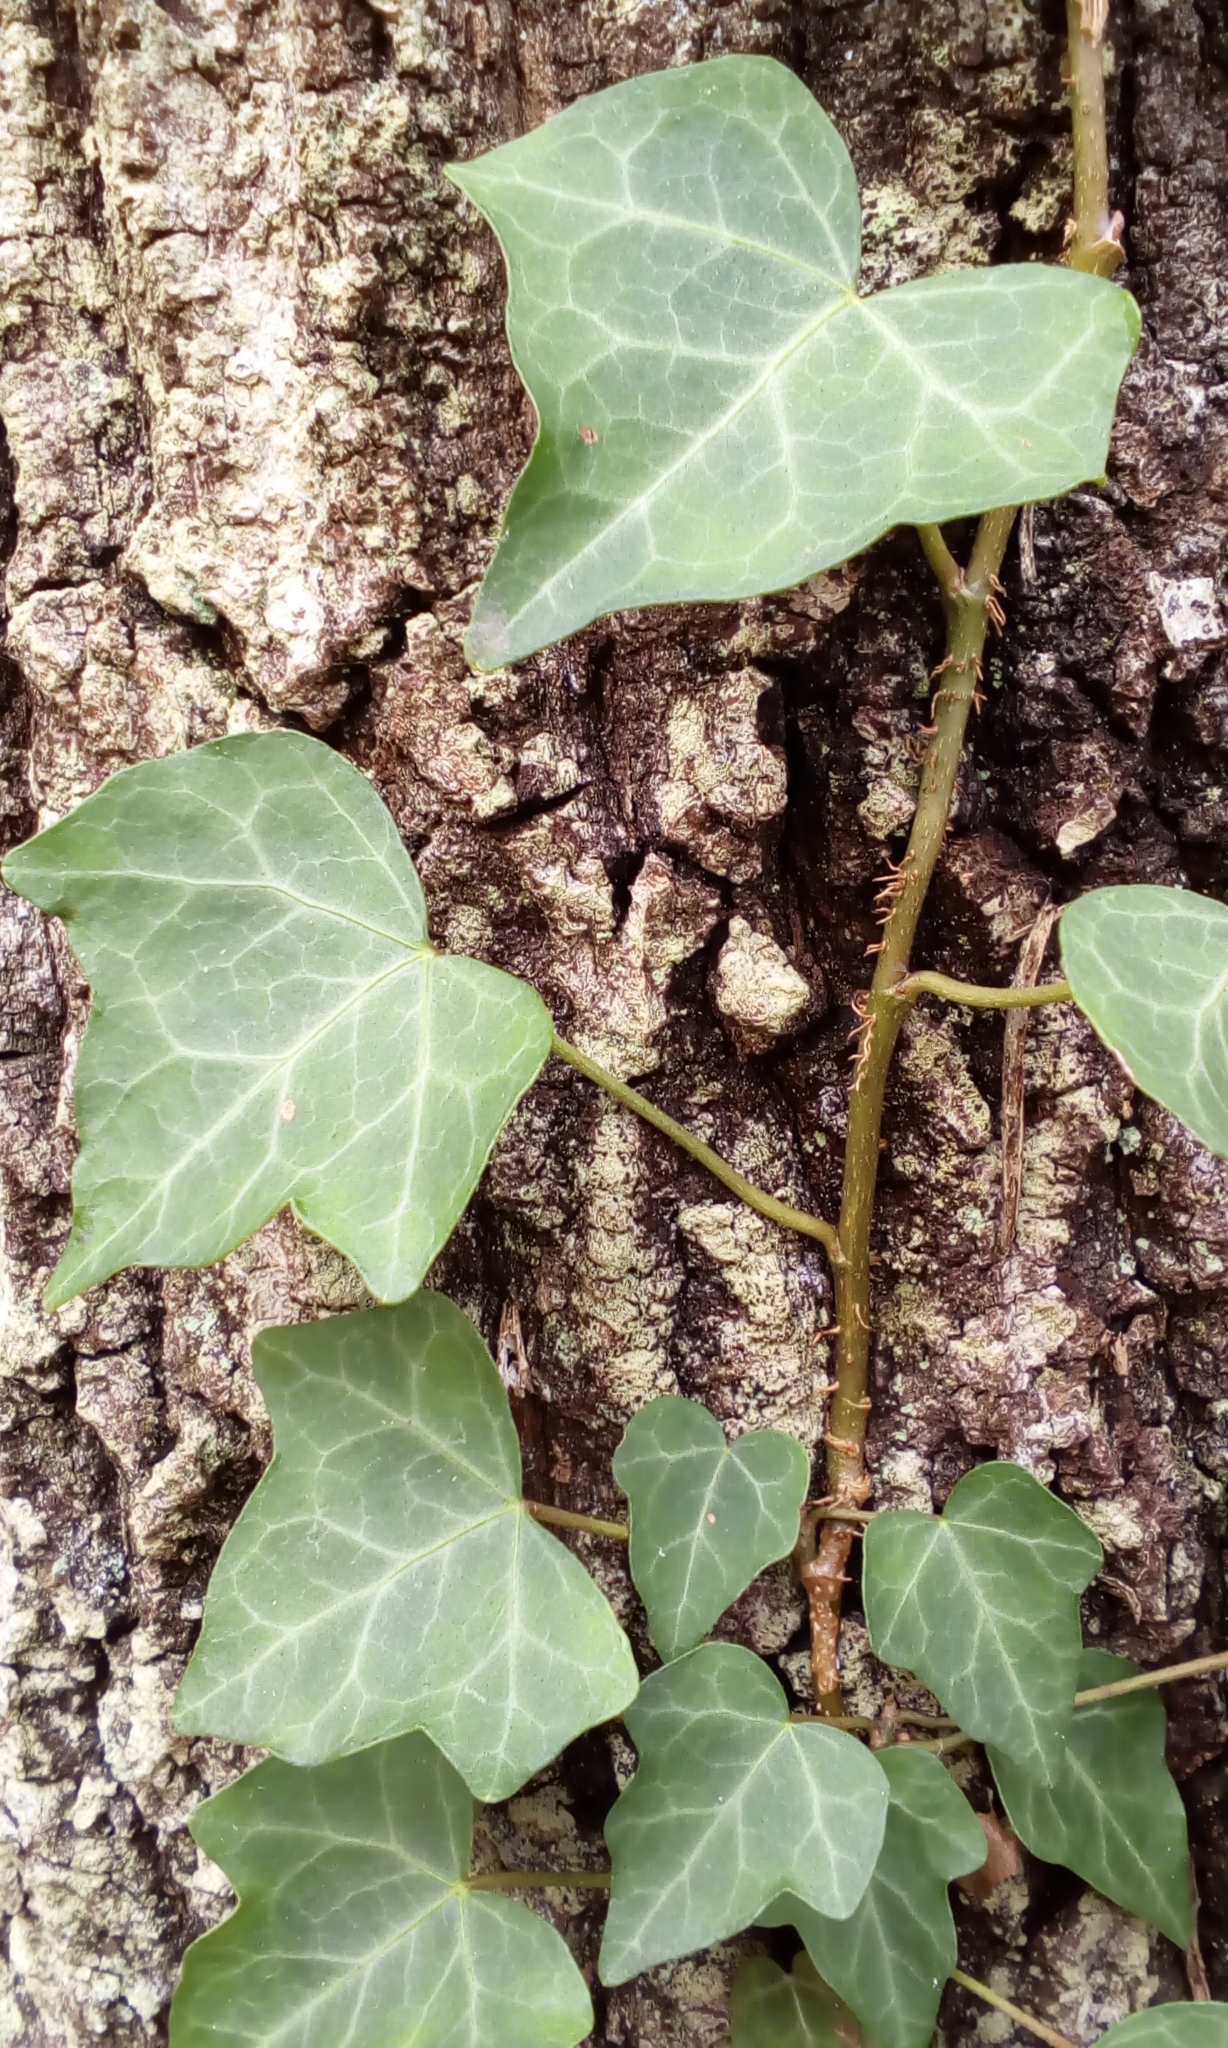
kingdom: Plantae
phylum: Tracheophyta
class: Magnoliopsida
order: Apiales
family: Araliaceae
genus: Hedera
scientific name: Hedera rhombea
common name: Japanese ivy
